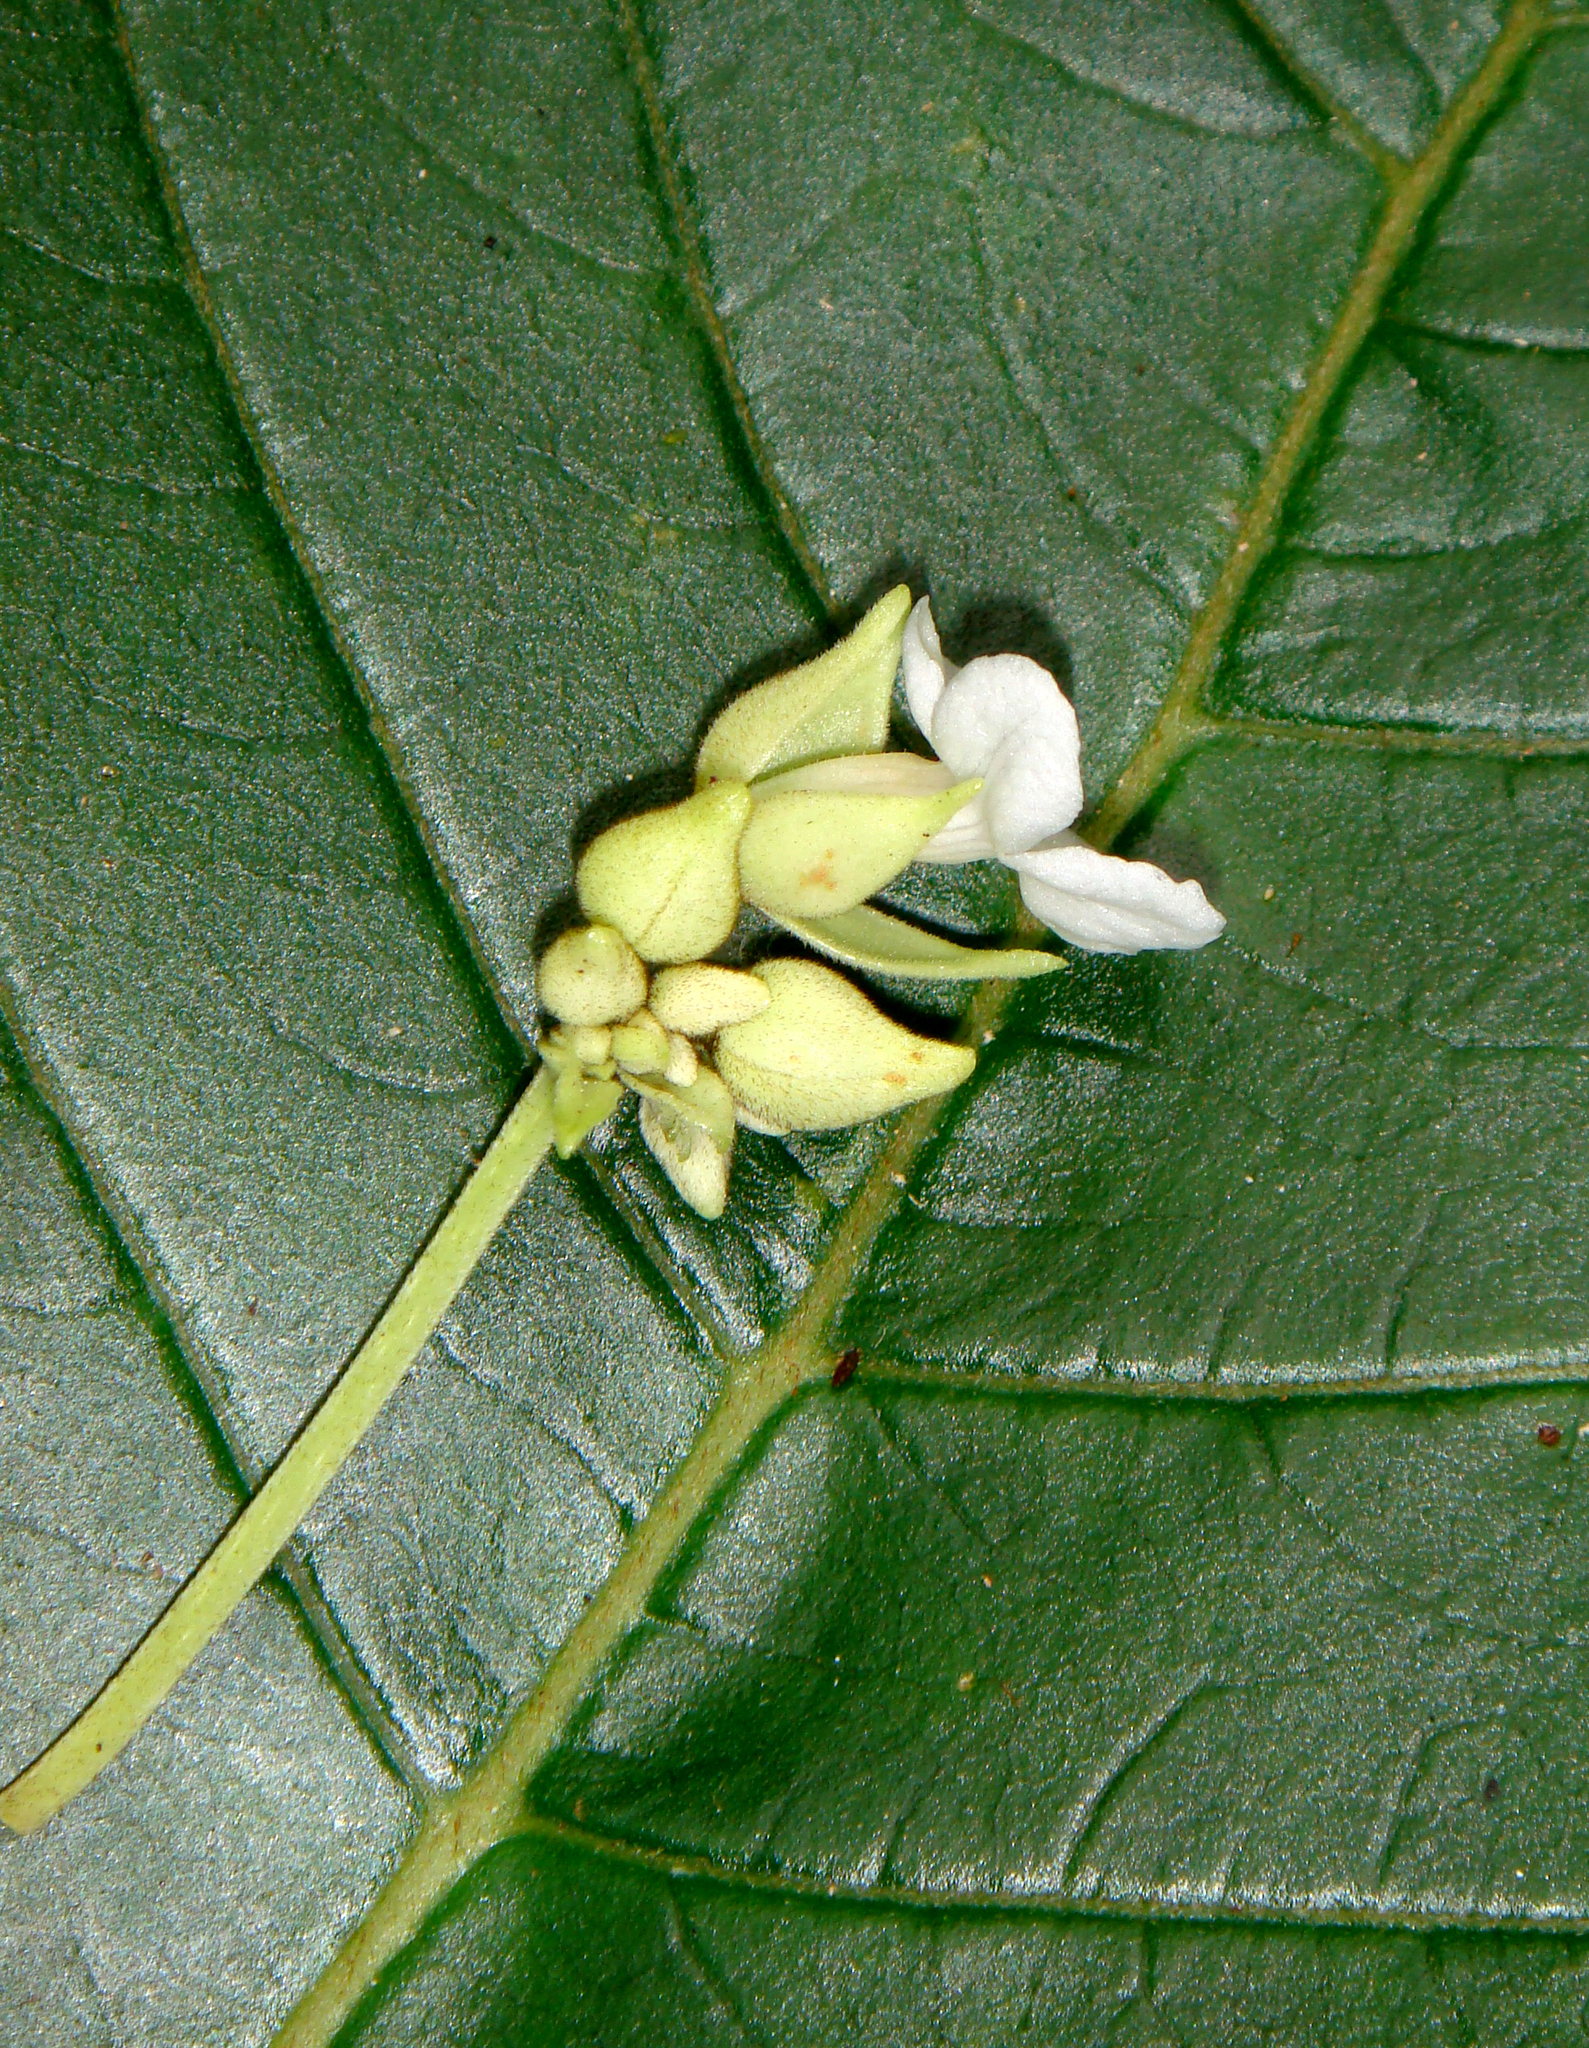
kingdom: Plantae
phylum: Tracheophyta
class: Magnoliopsida
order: Lamiales
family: Gesneriaceae
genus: Cyrtandra
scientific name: Cyrtandra rarotongensis
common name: Rarotonga cyrtandra
